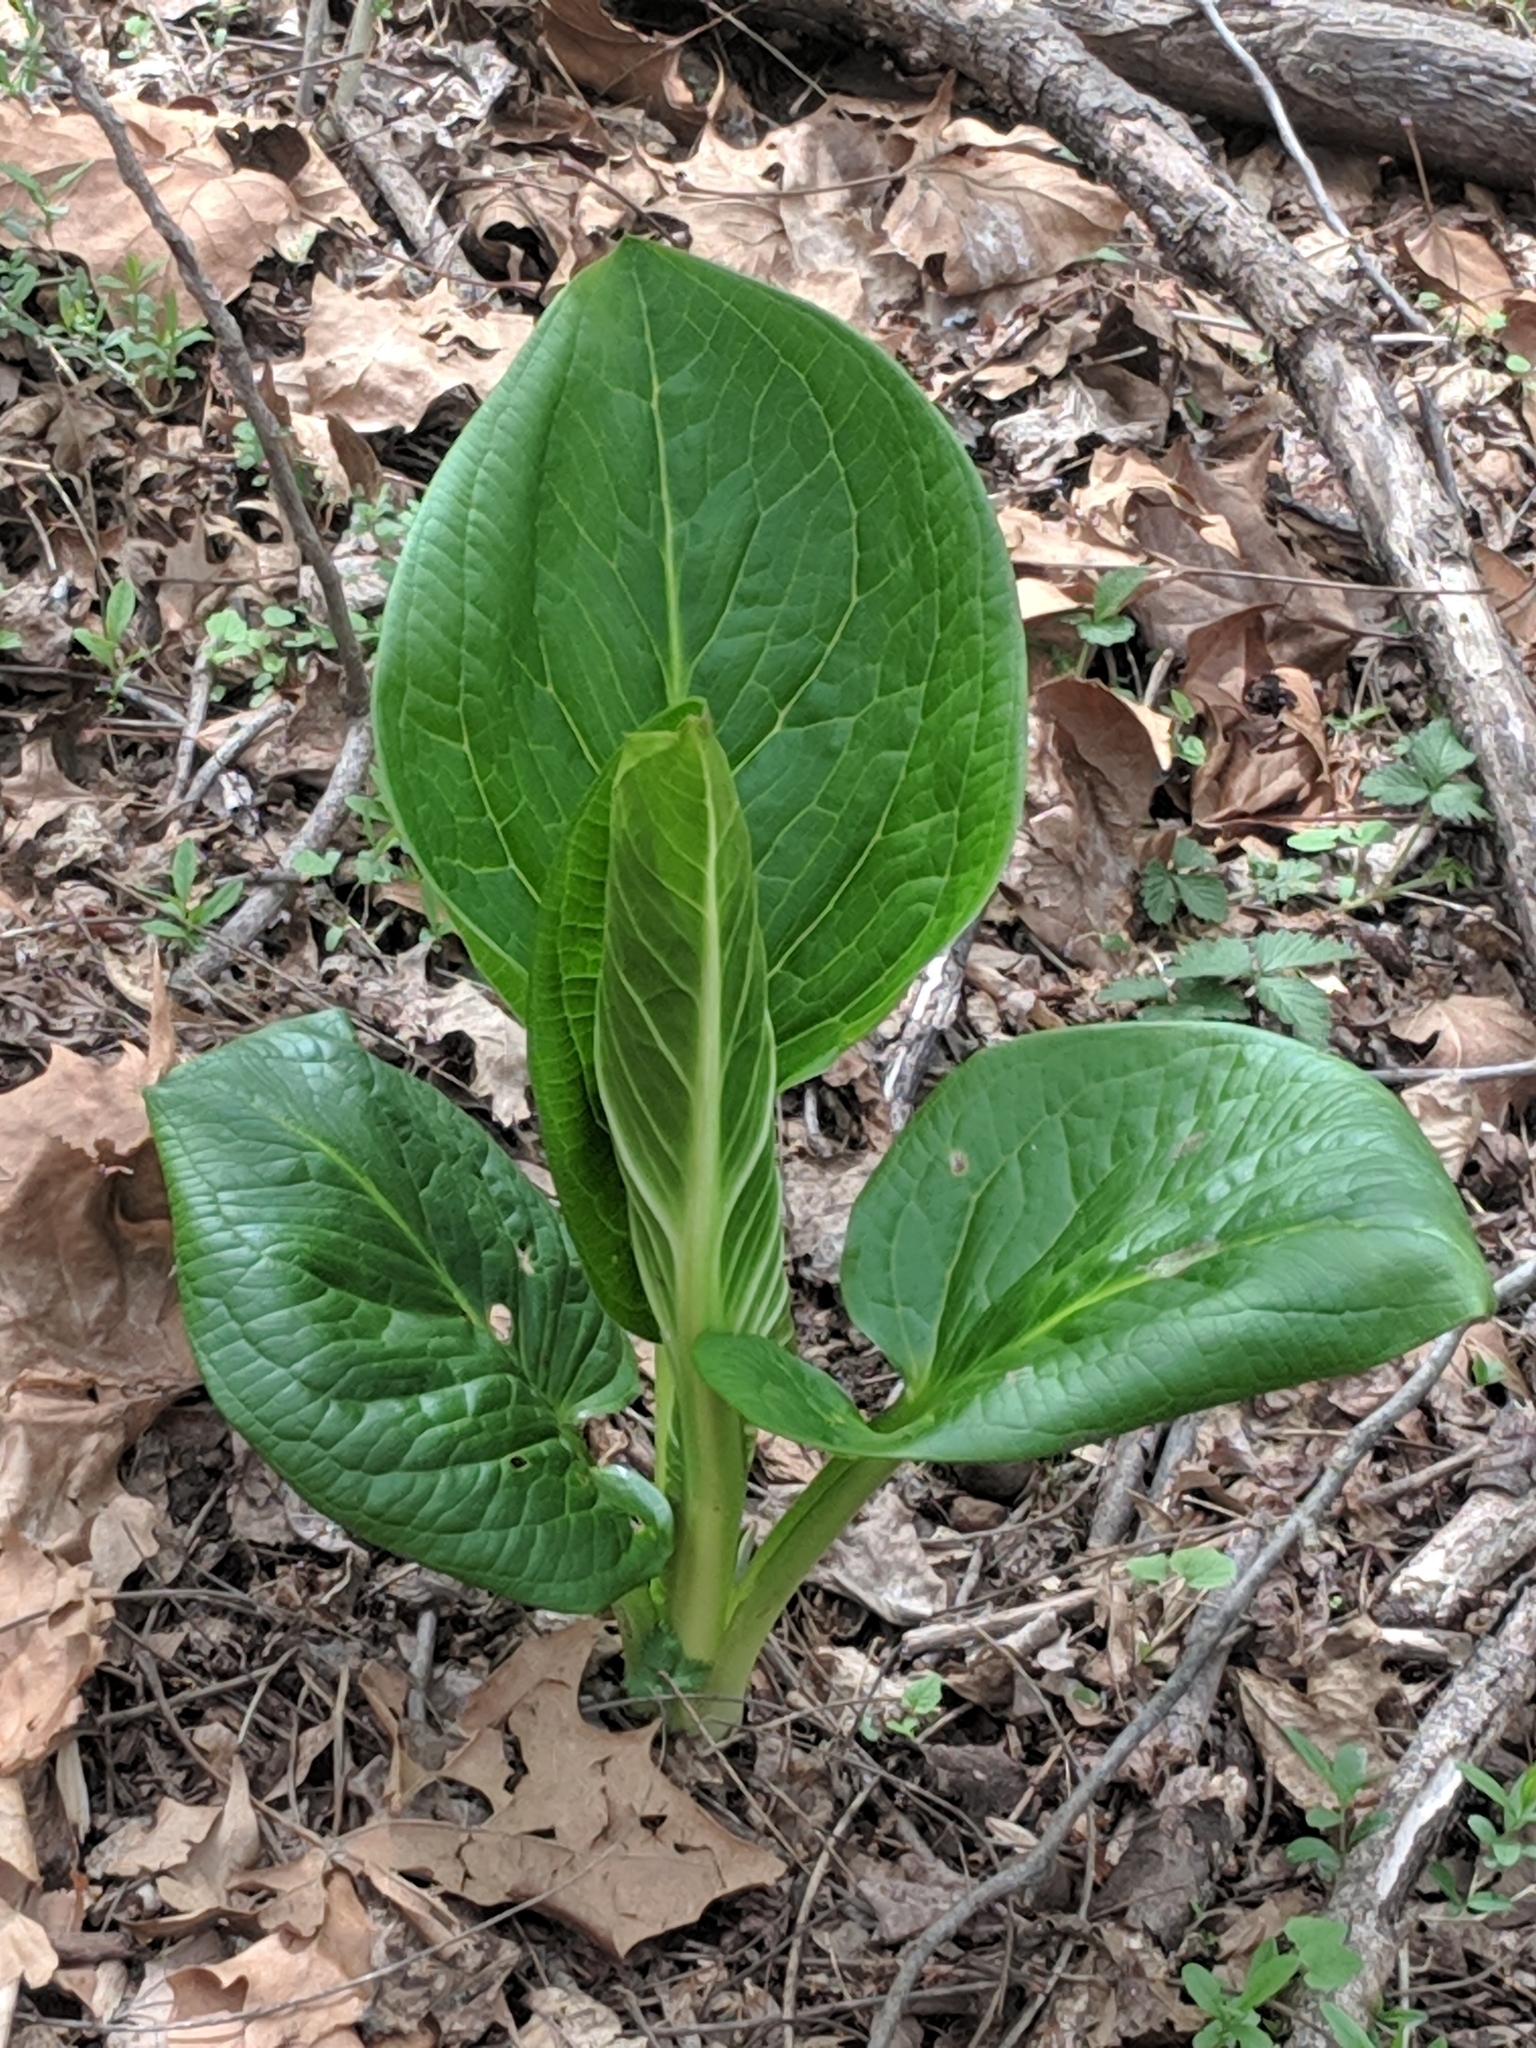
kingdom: Plantae
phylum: Tracheophyta
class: Liliopsida
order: Alismatales
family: Araceae
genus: Symplocarpus
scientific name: Symplocarpus foetidus
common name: Eastern skunk cabbage
